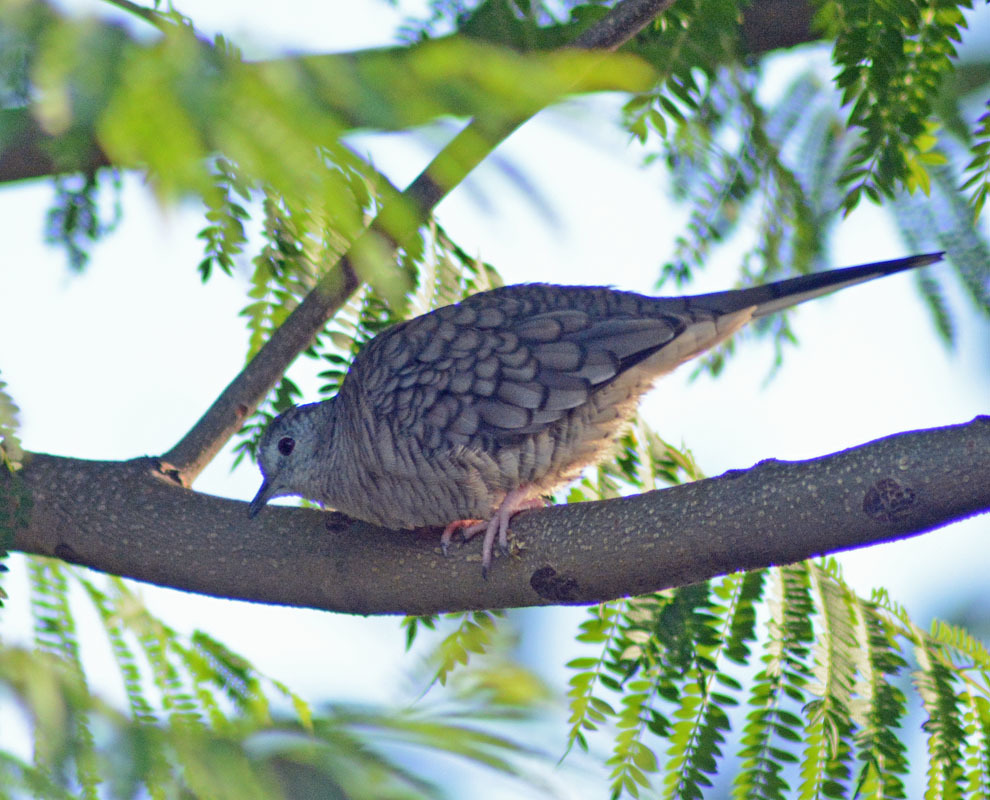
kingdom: Animalia
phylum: Chordata
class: Aves
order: Columbiformes
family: Columbidae
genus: Columbina
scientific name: Columbina inca
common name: Inca dove
